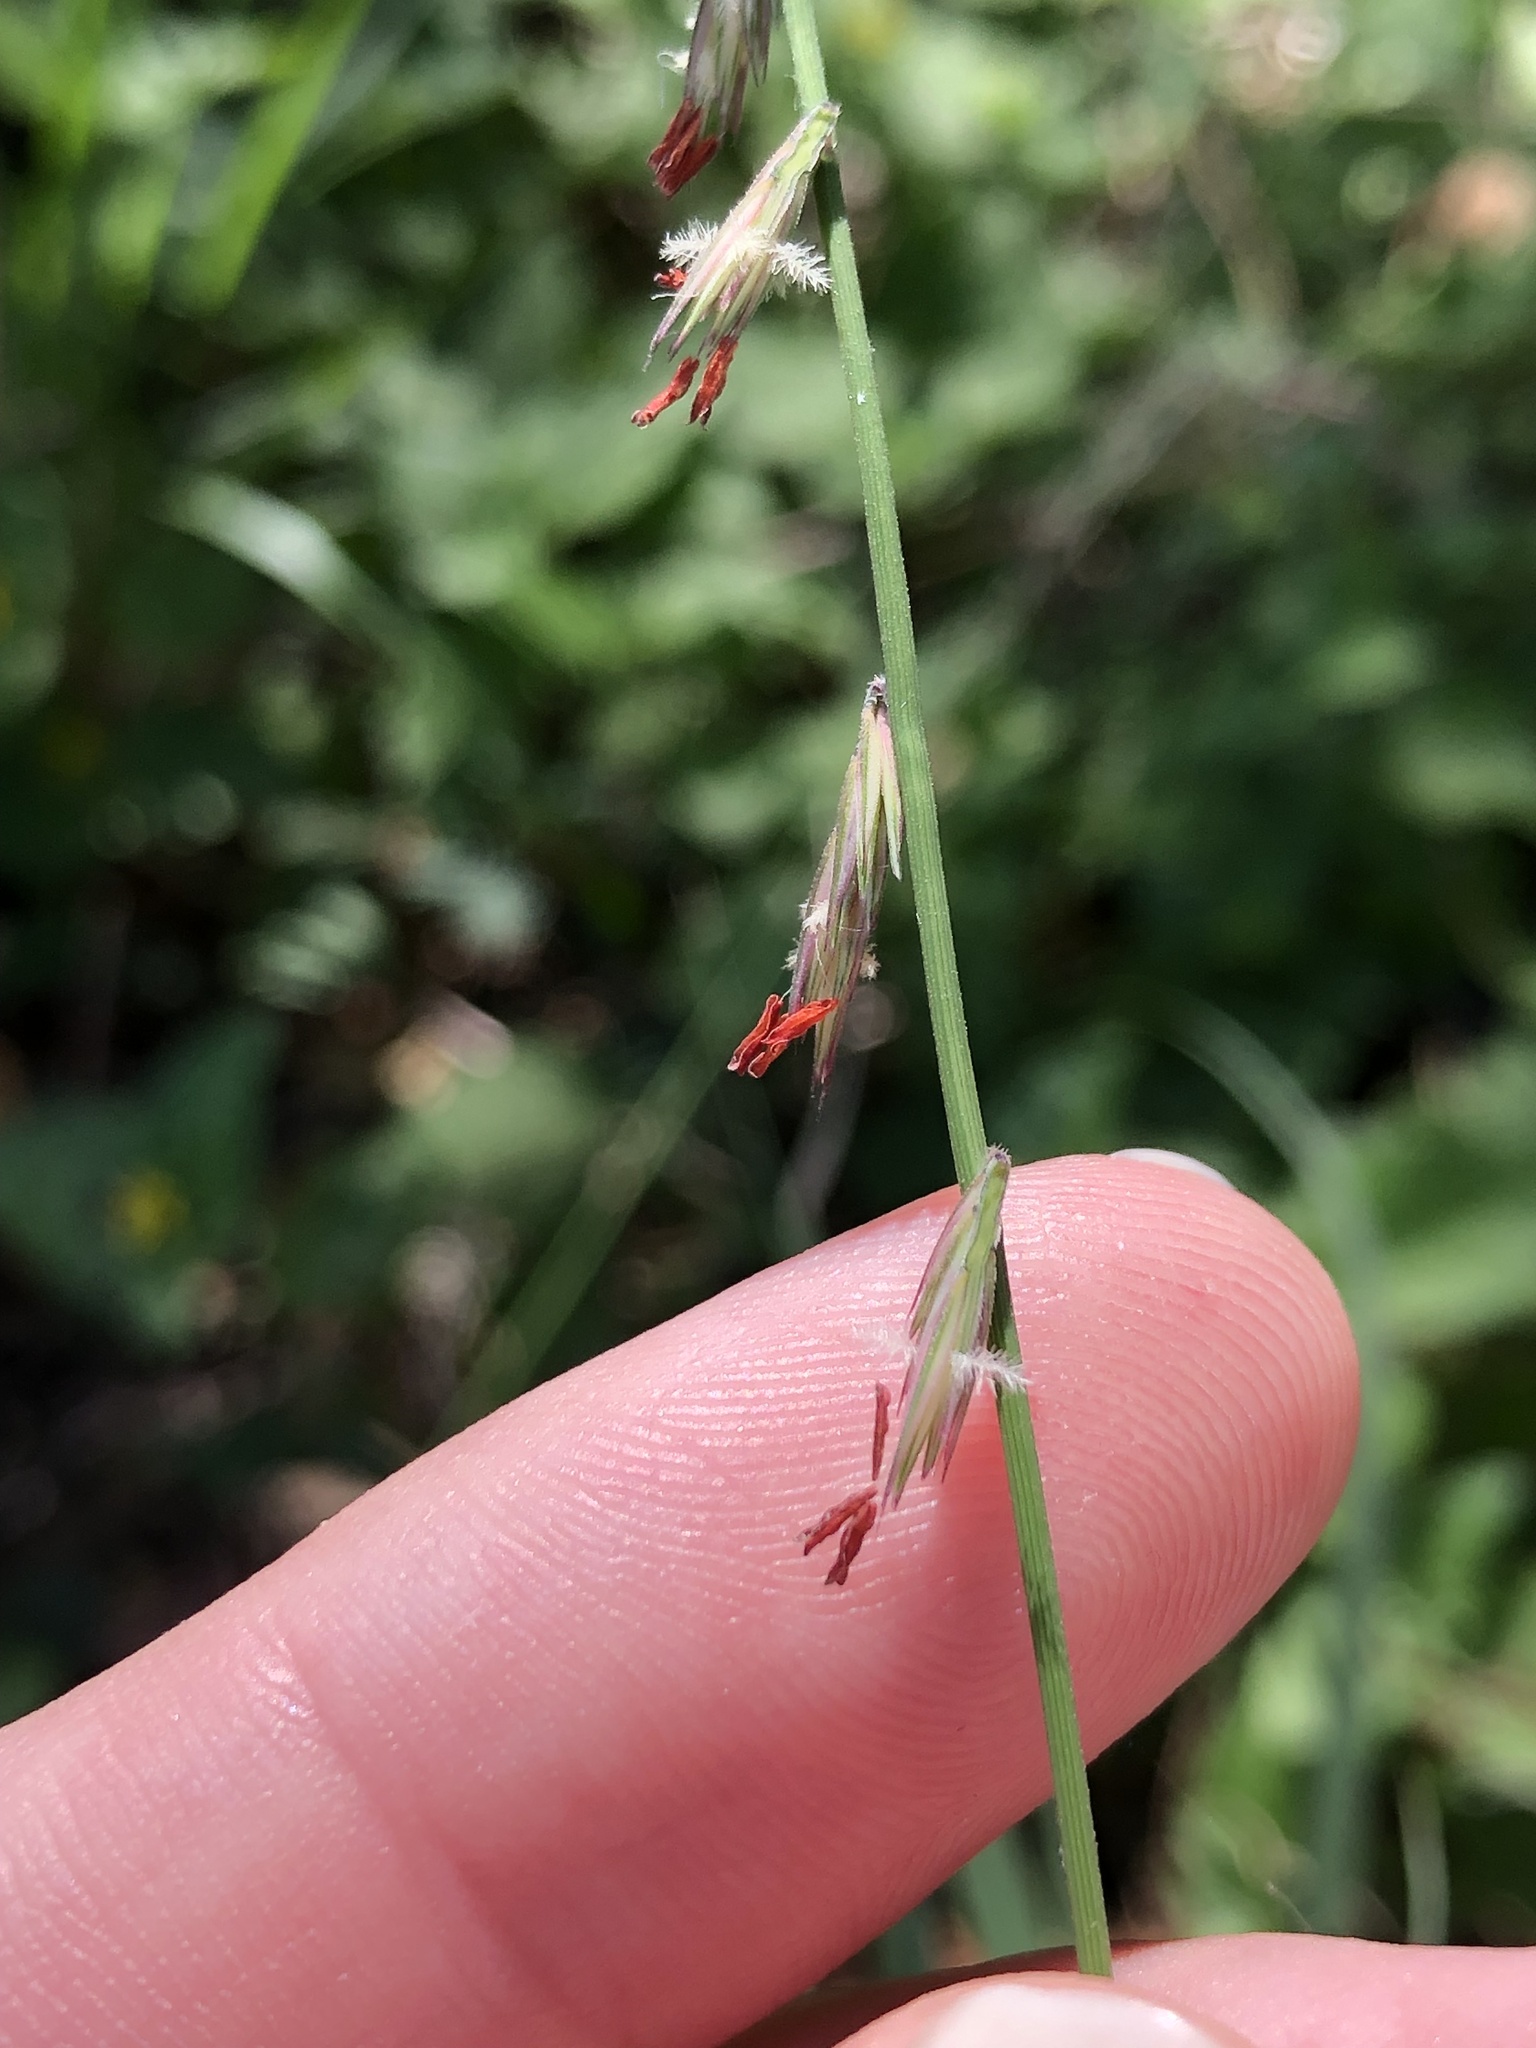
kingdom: Plantae
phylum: Tracheophyta
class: Liliopsida
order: Poales
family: Poaceae
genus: Bouteloua
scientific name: Bouteloua curtipendula
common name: Side-oats grama
